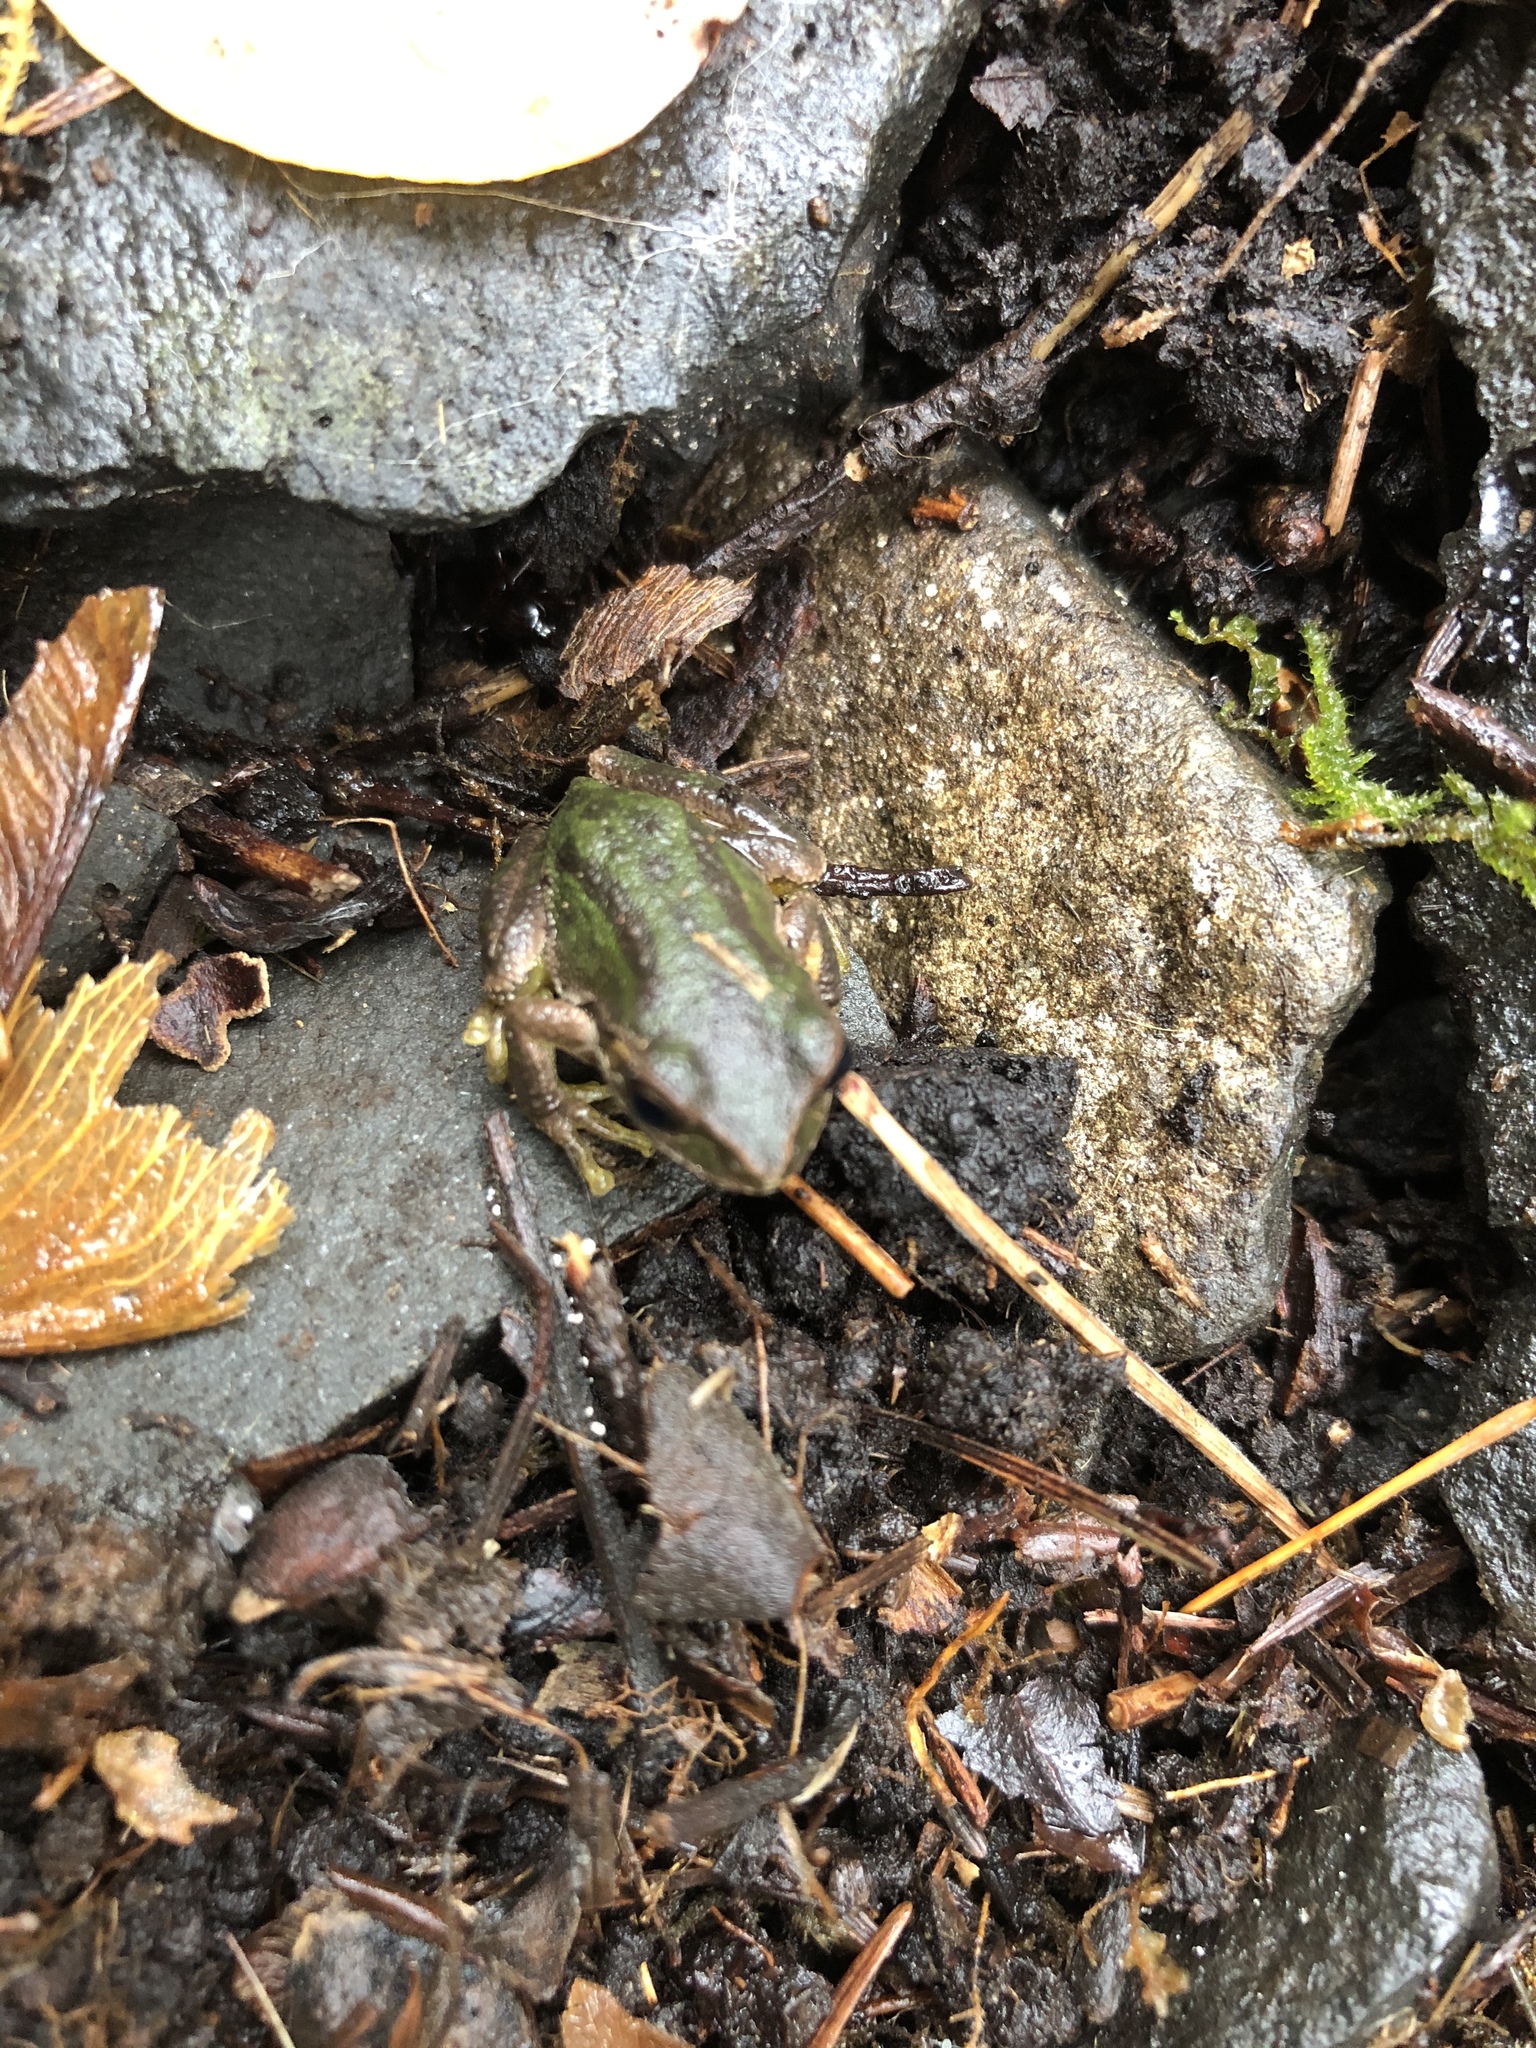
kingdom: Animalia
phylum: Chordata
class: Amphibia
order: Anura
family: Hylidae
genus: Pseudacris
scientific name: Pseudacris regilla
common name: Pacific chorus frog
